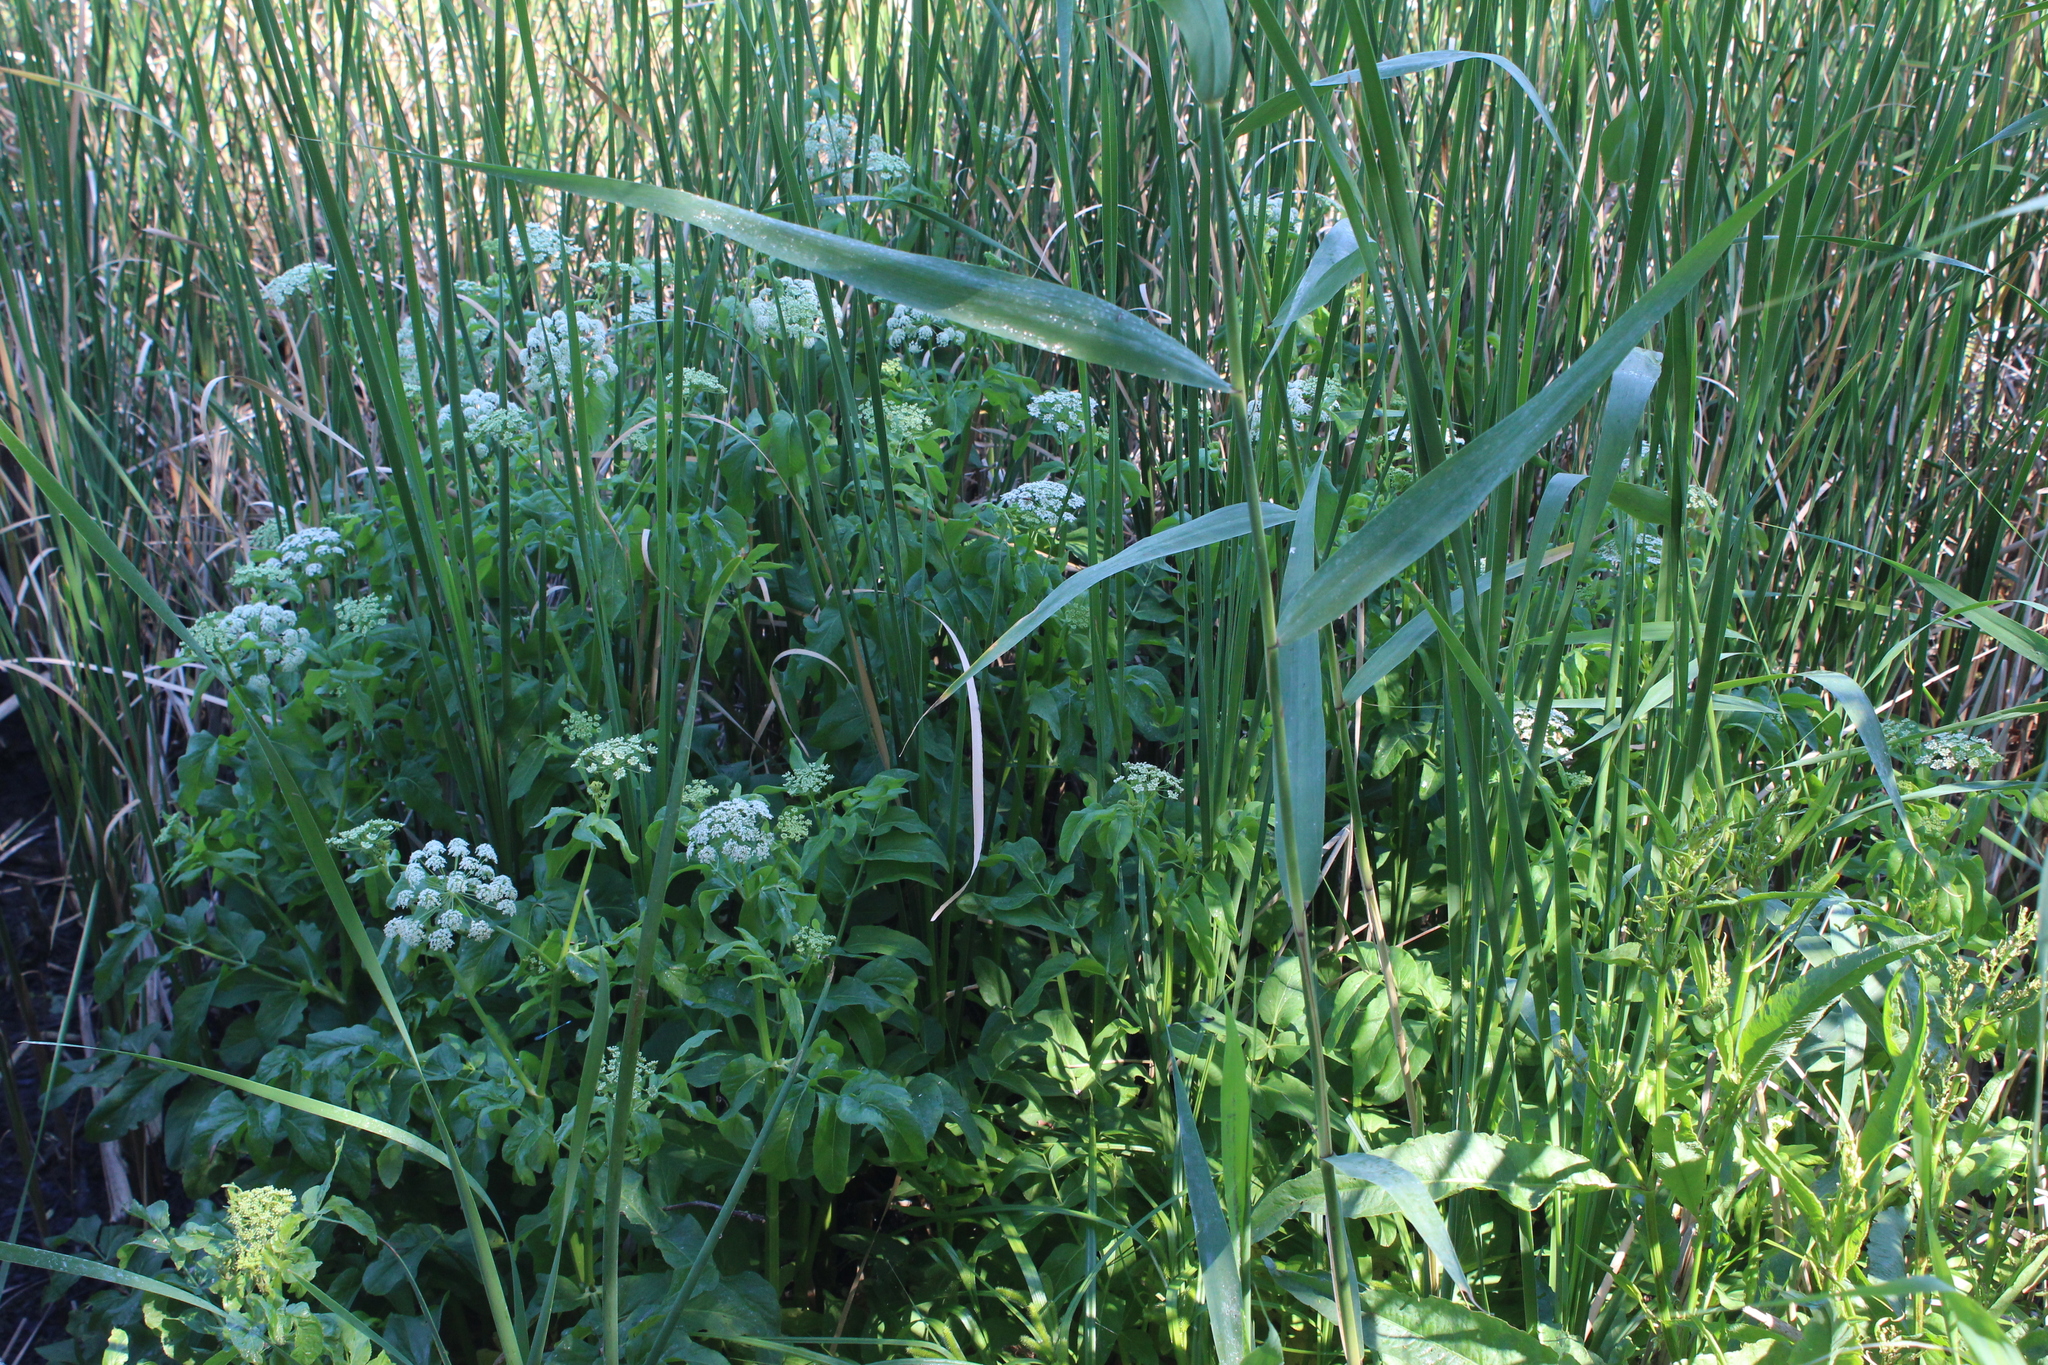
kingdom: Plantae
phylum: Tracheophyta
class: Magnoliopsida
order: Apiales
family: Apiaceae
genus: Sium
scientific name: Sium latifolium
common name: Greater water-parsnip
